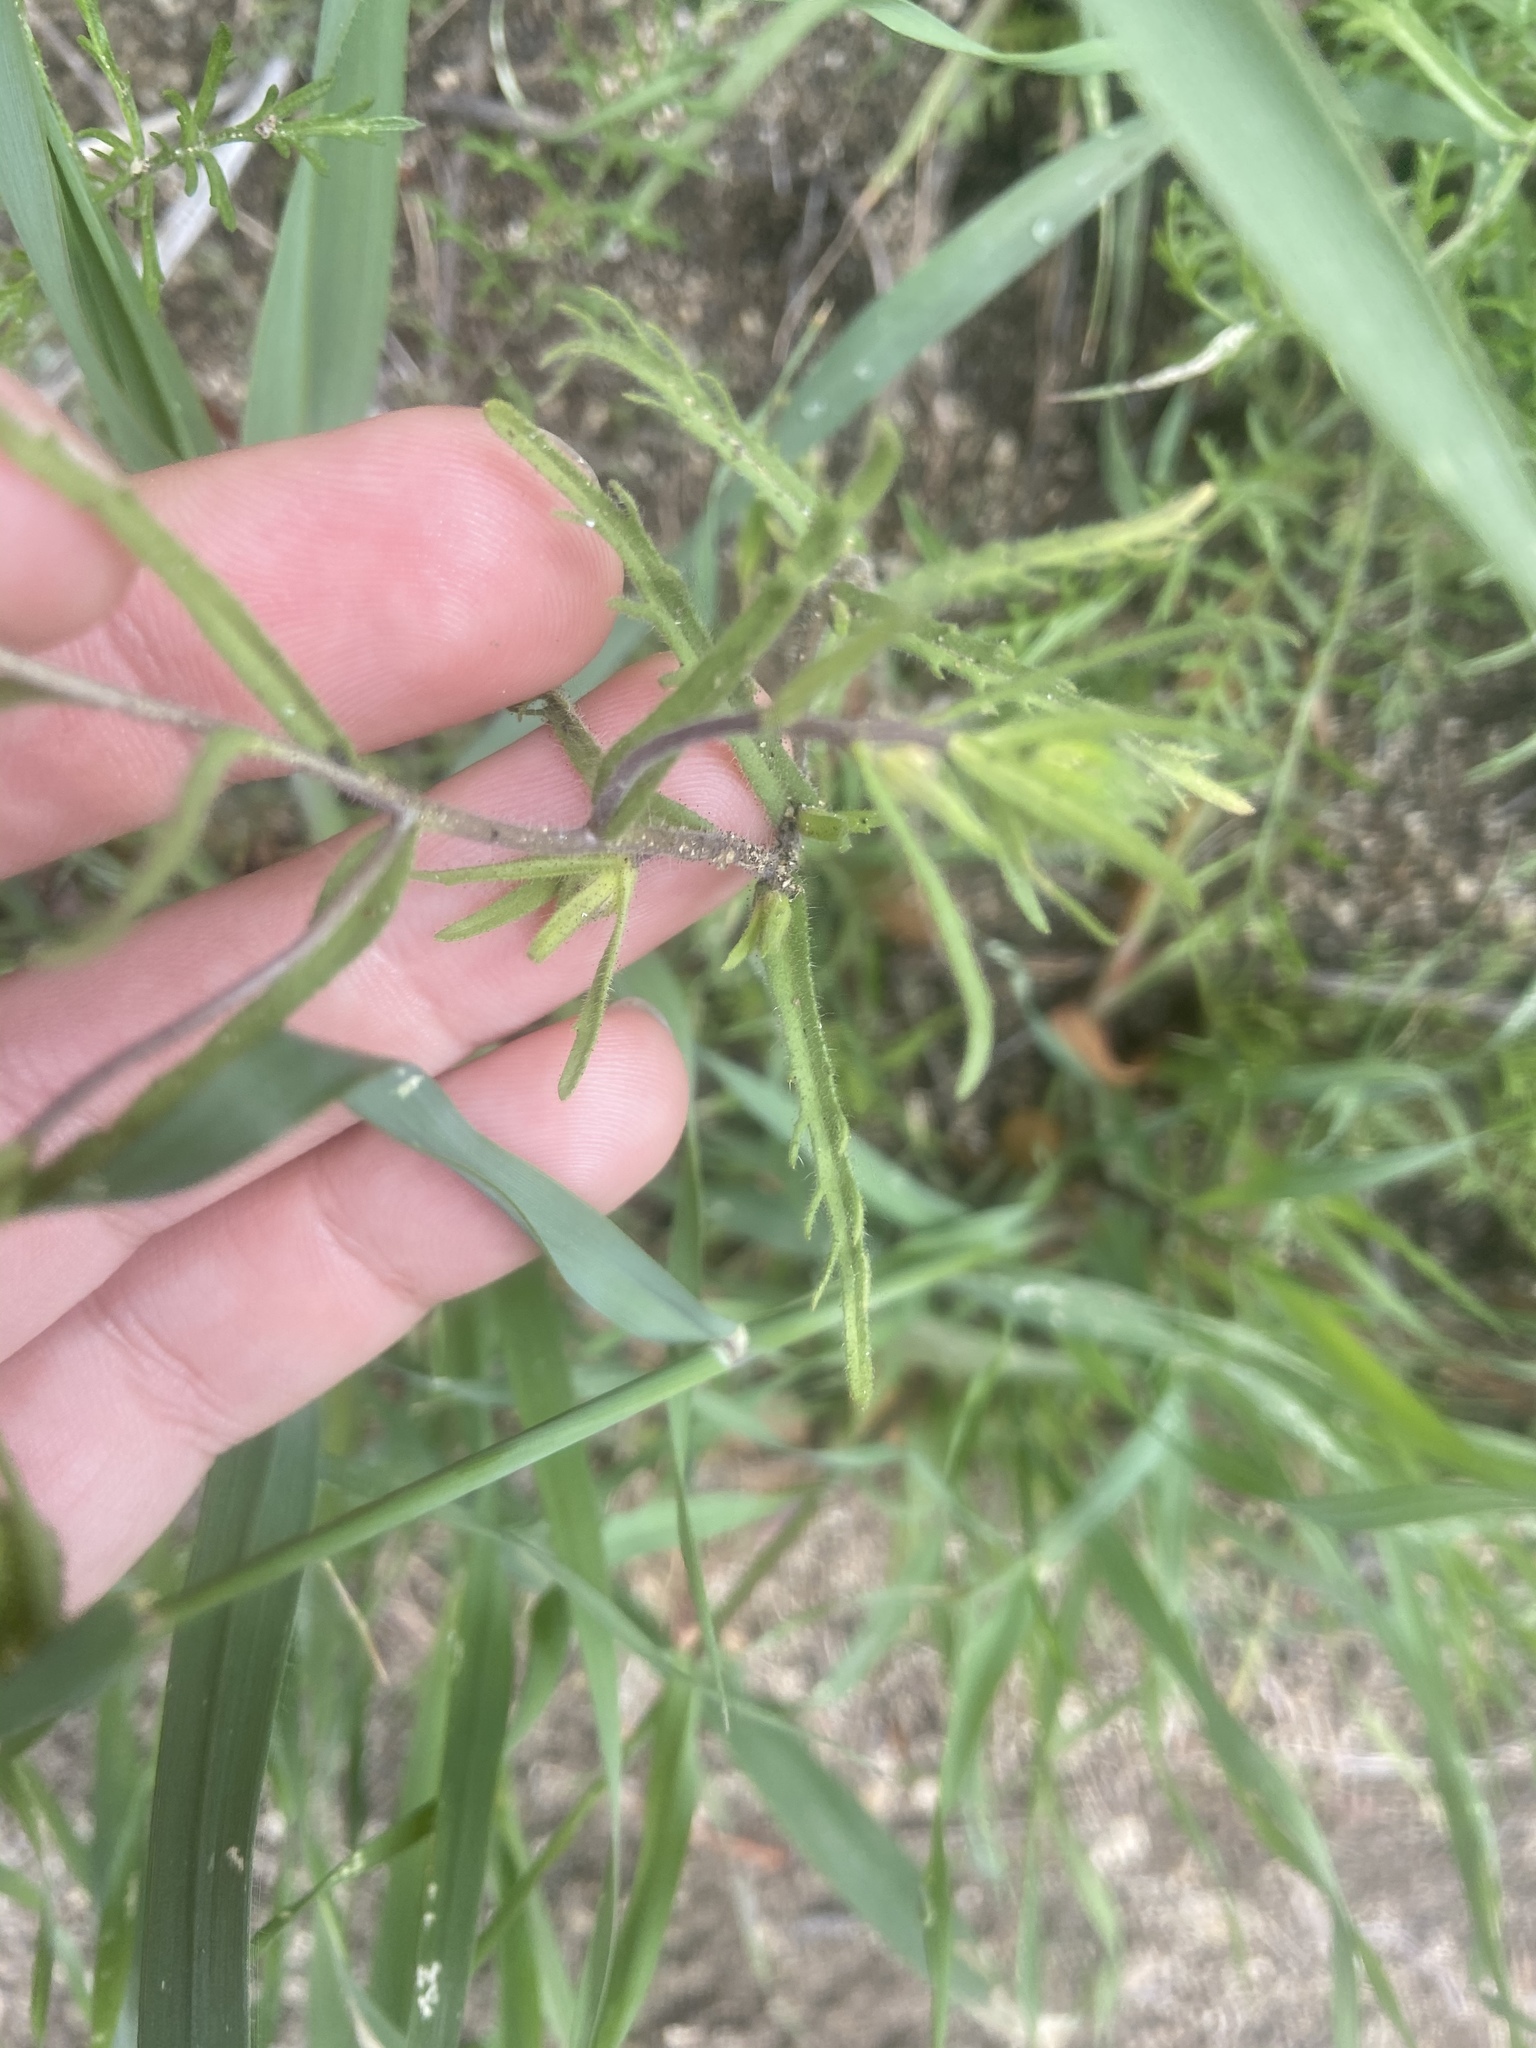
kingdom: Plantae
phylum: Tracheophyta
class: Magnoliopsida
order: Asterales
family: Asteraceae
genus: Layia
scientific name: Layia pentachaeta
